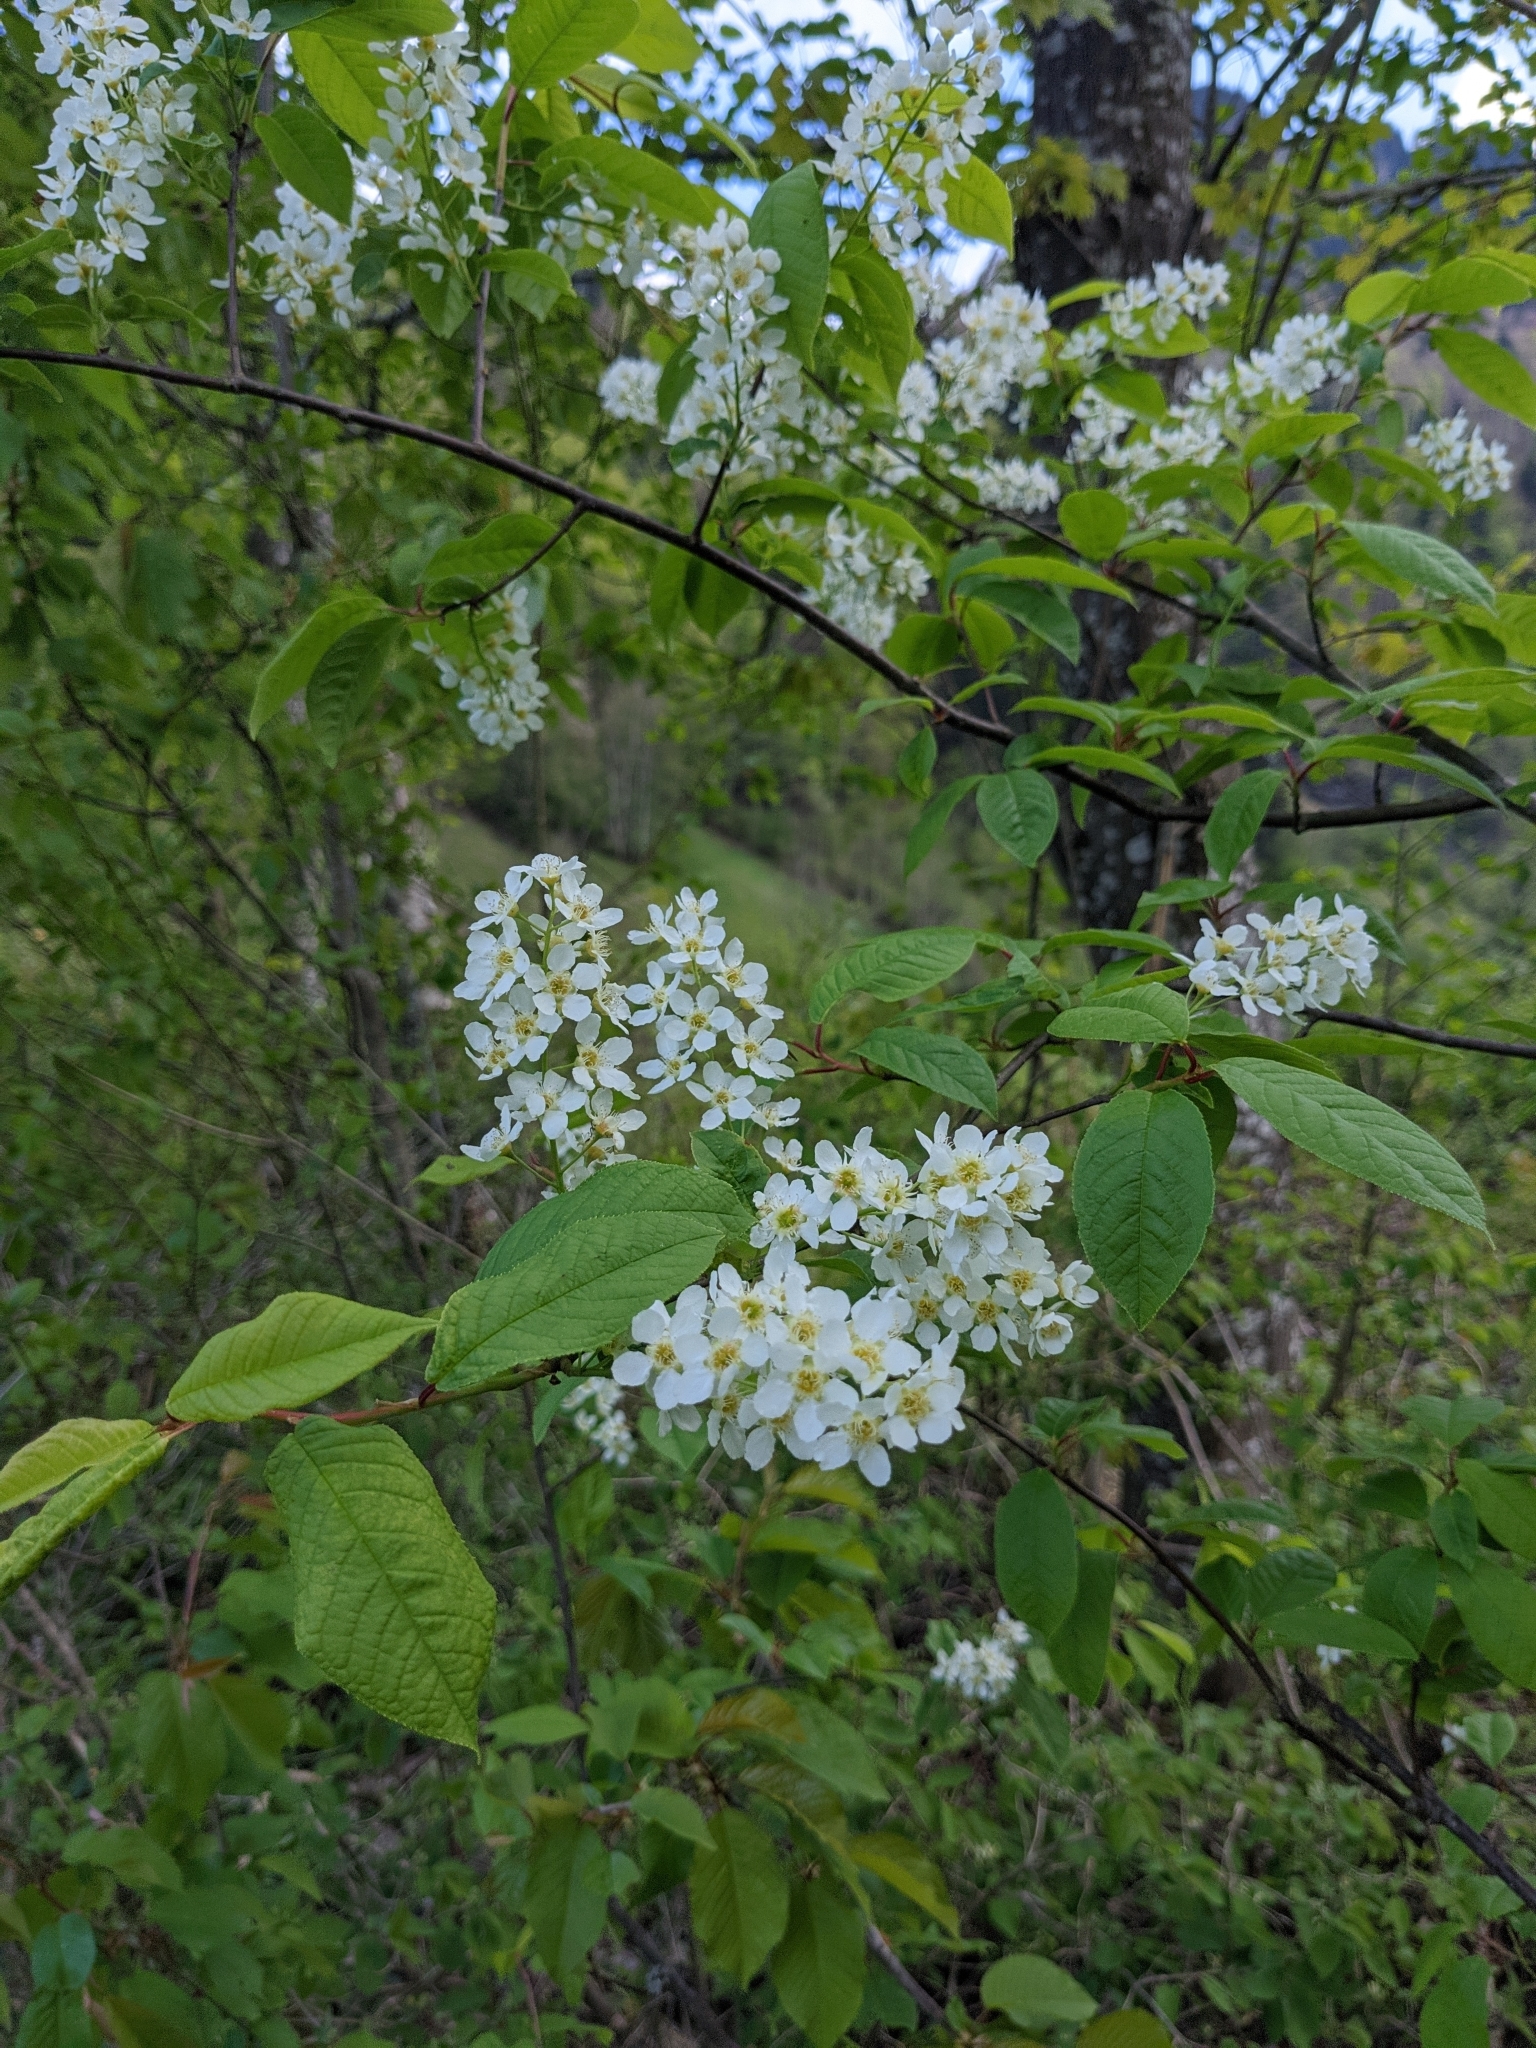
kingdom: Plantae
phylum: Tracheophyta
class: Magnoliopsida
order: Rosales
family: Rosaceae
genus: Prunus
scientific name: Prunus padus
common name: Bird cherry
